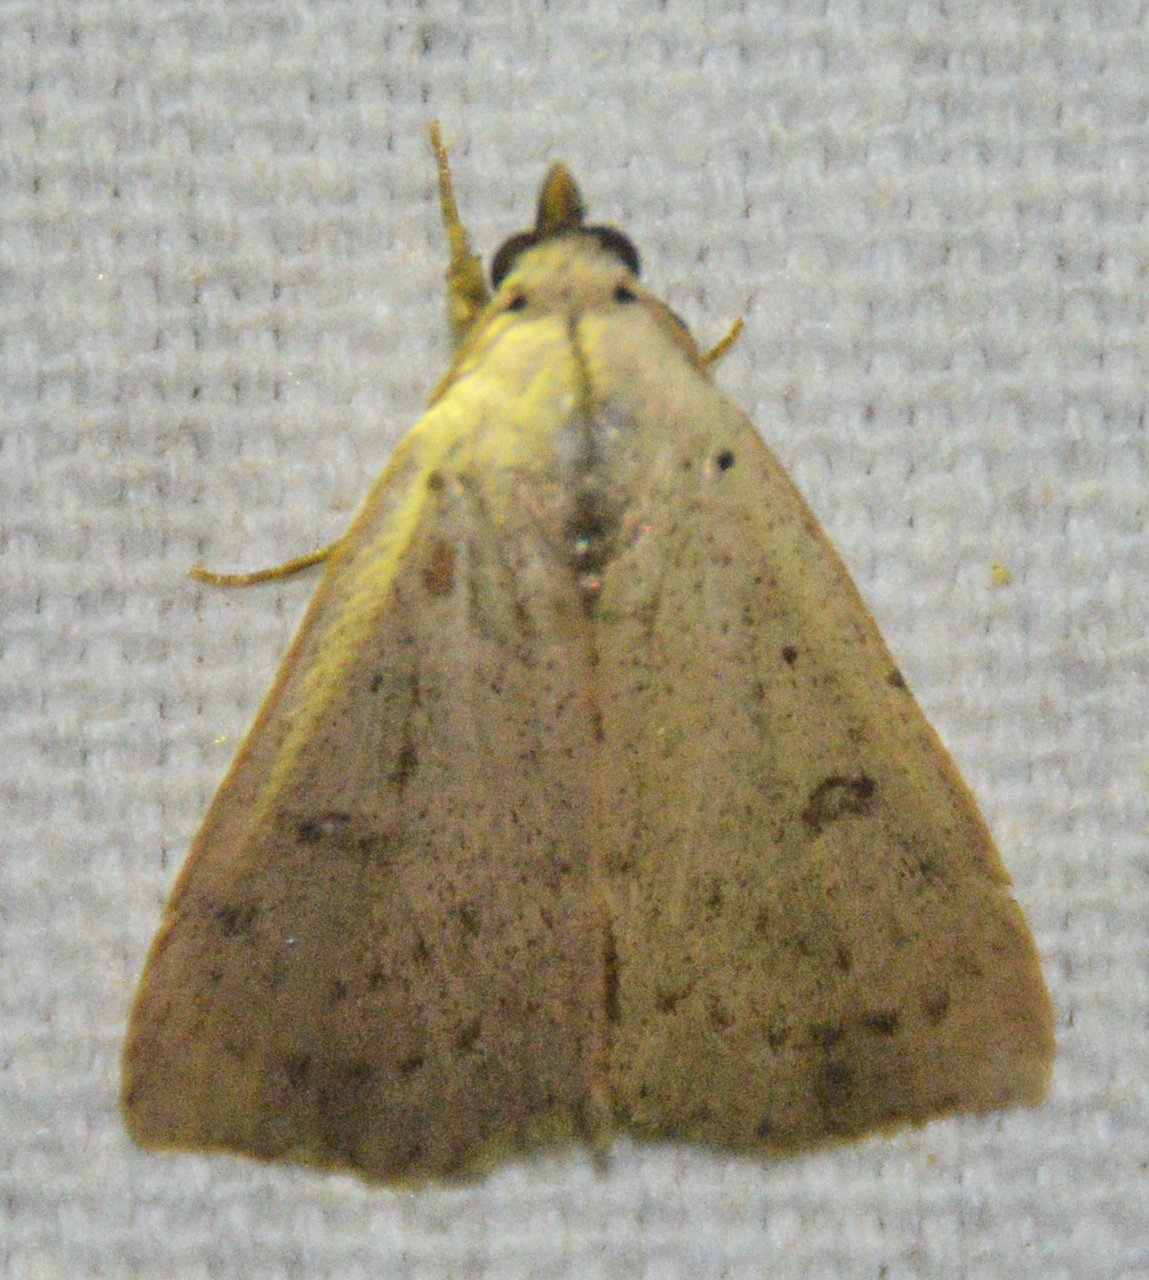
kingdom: Animalia
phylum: Arthropoda
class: Insecta
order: Lepidoptera
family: Erebidae
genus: Scolecocampa
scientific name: Scolecocampa liburna
